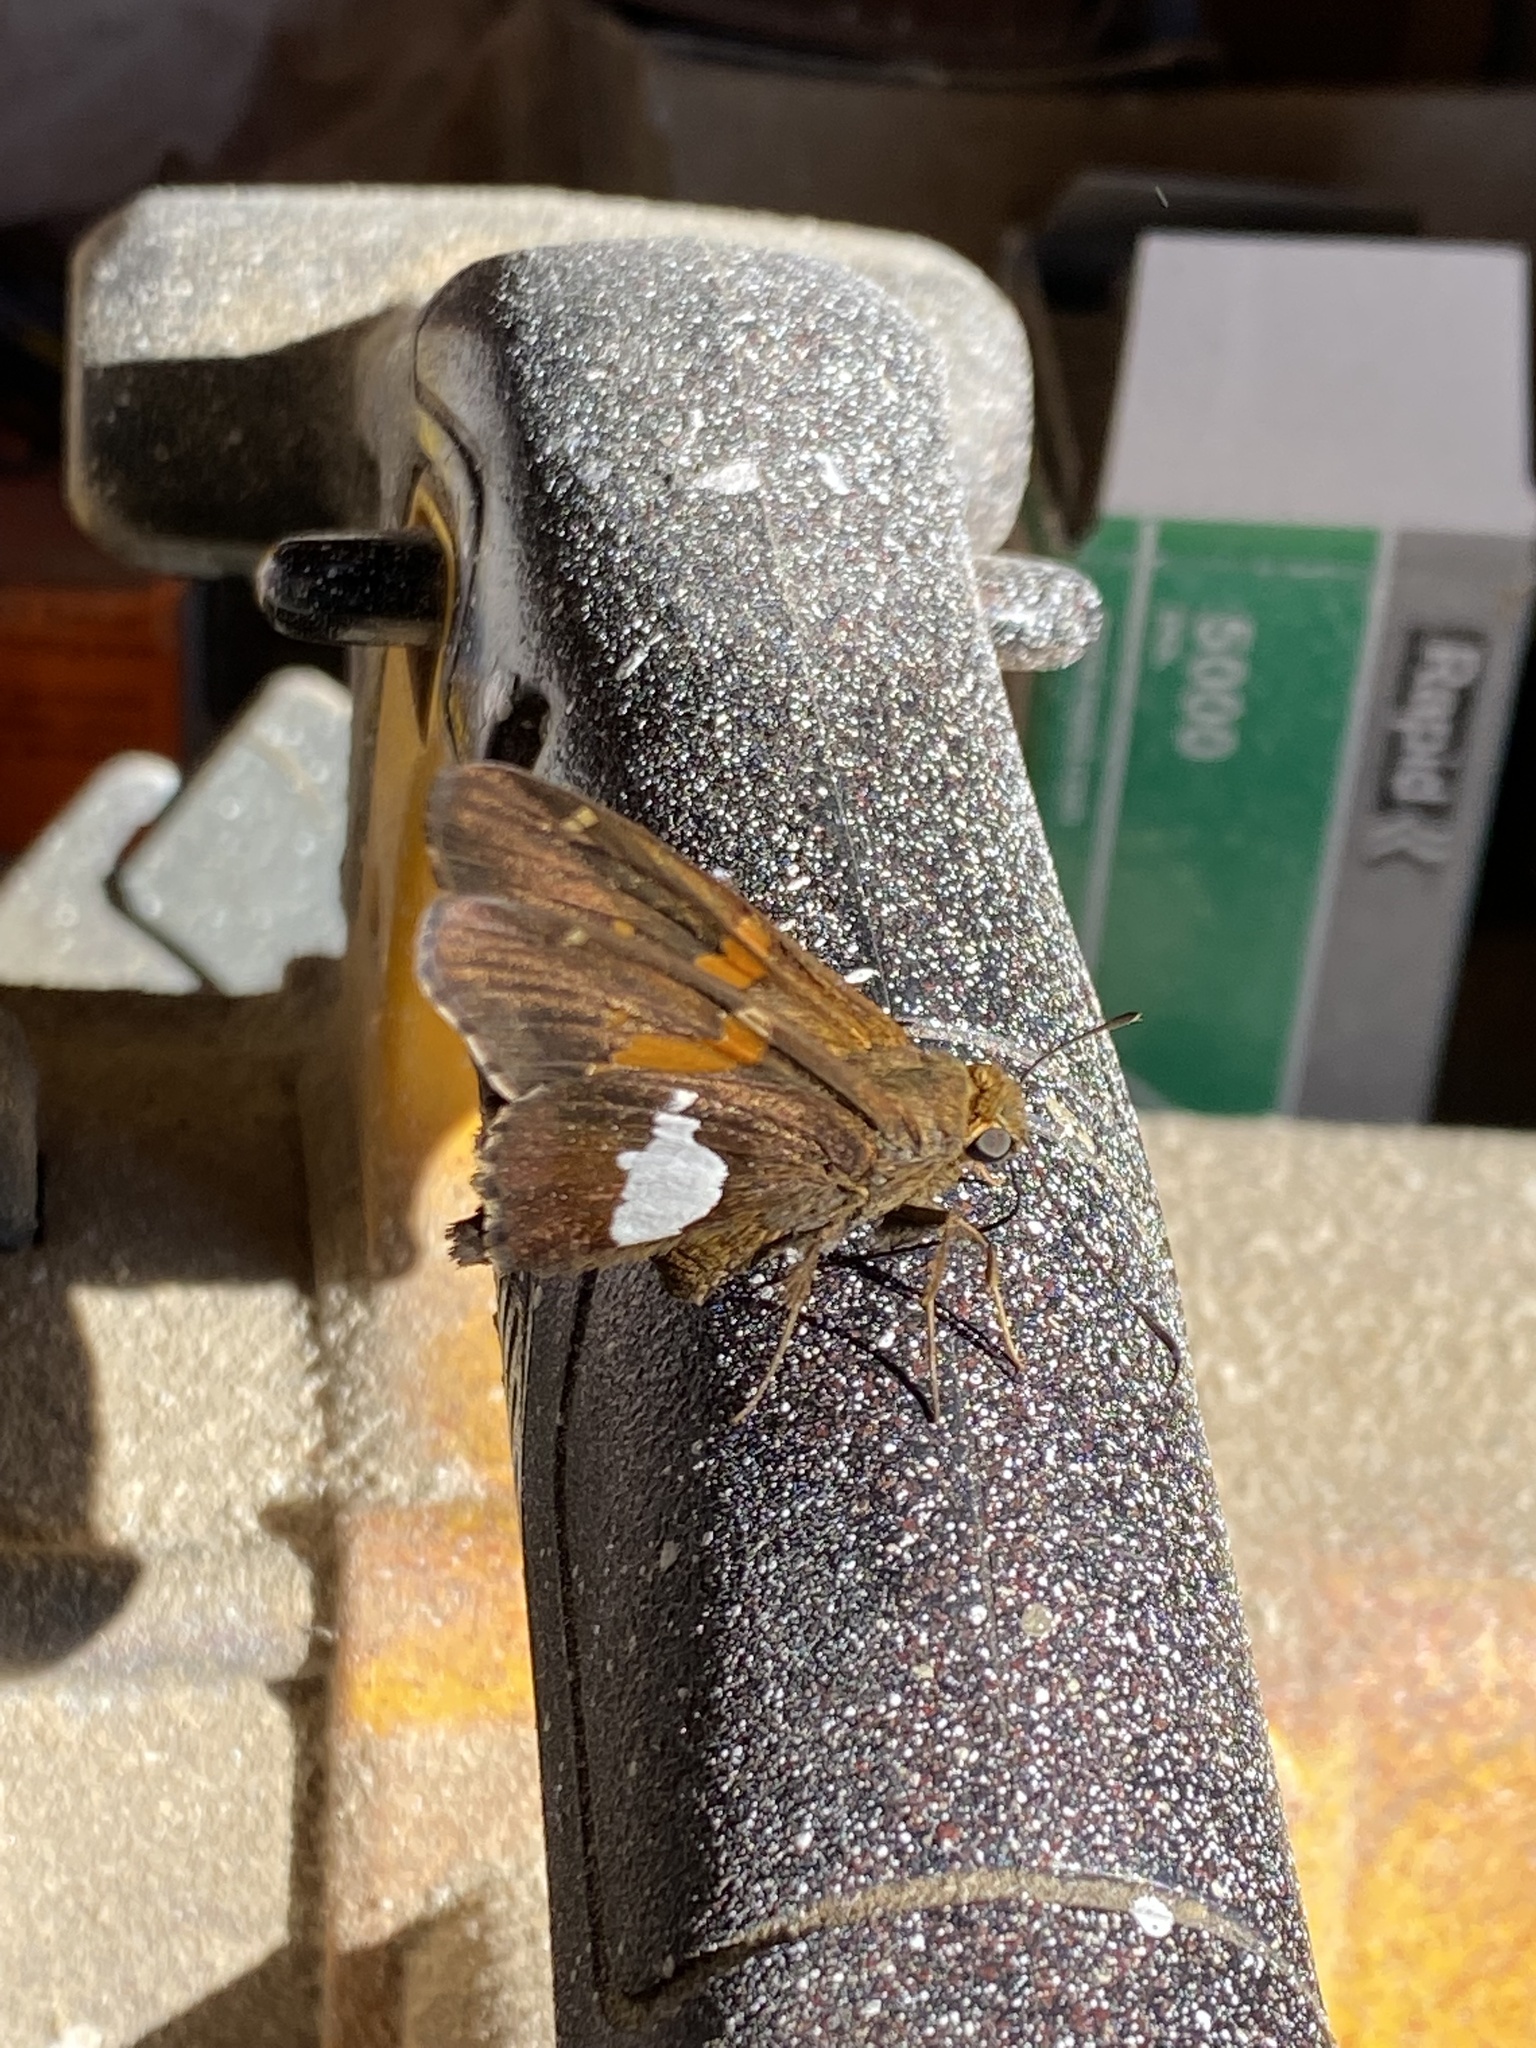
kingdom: Animalia
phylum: Arthropoda
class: Insecta
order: Lepidoptera
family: Hesperiidae
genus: Epargyreus
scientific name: Epargyreus clarus
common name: Silver-spotted skipper
